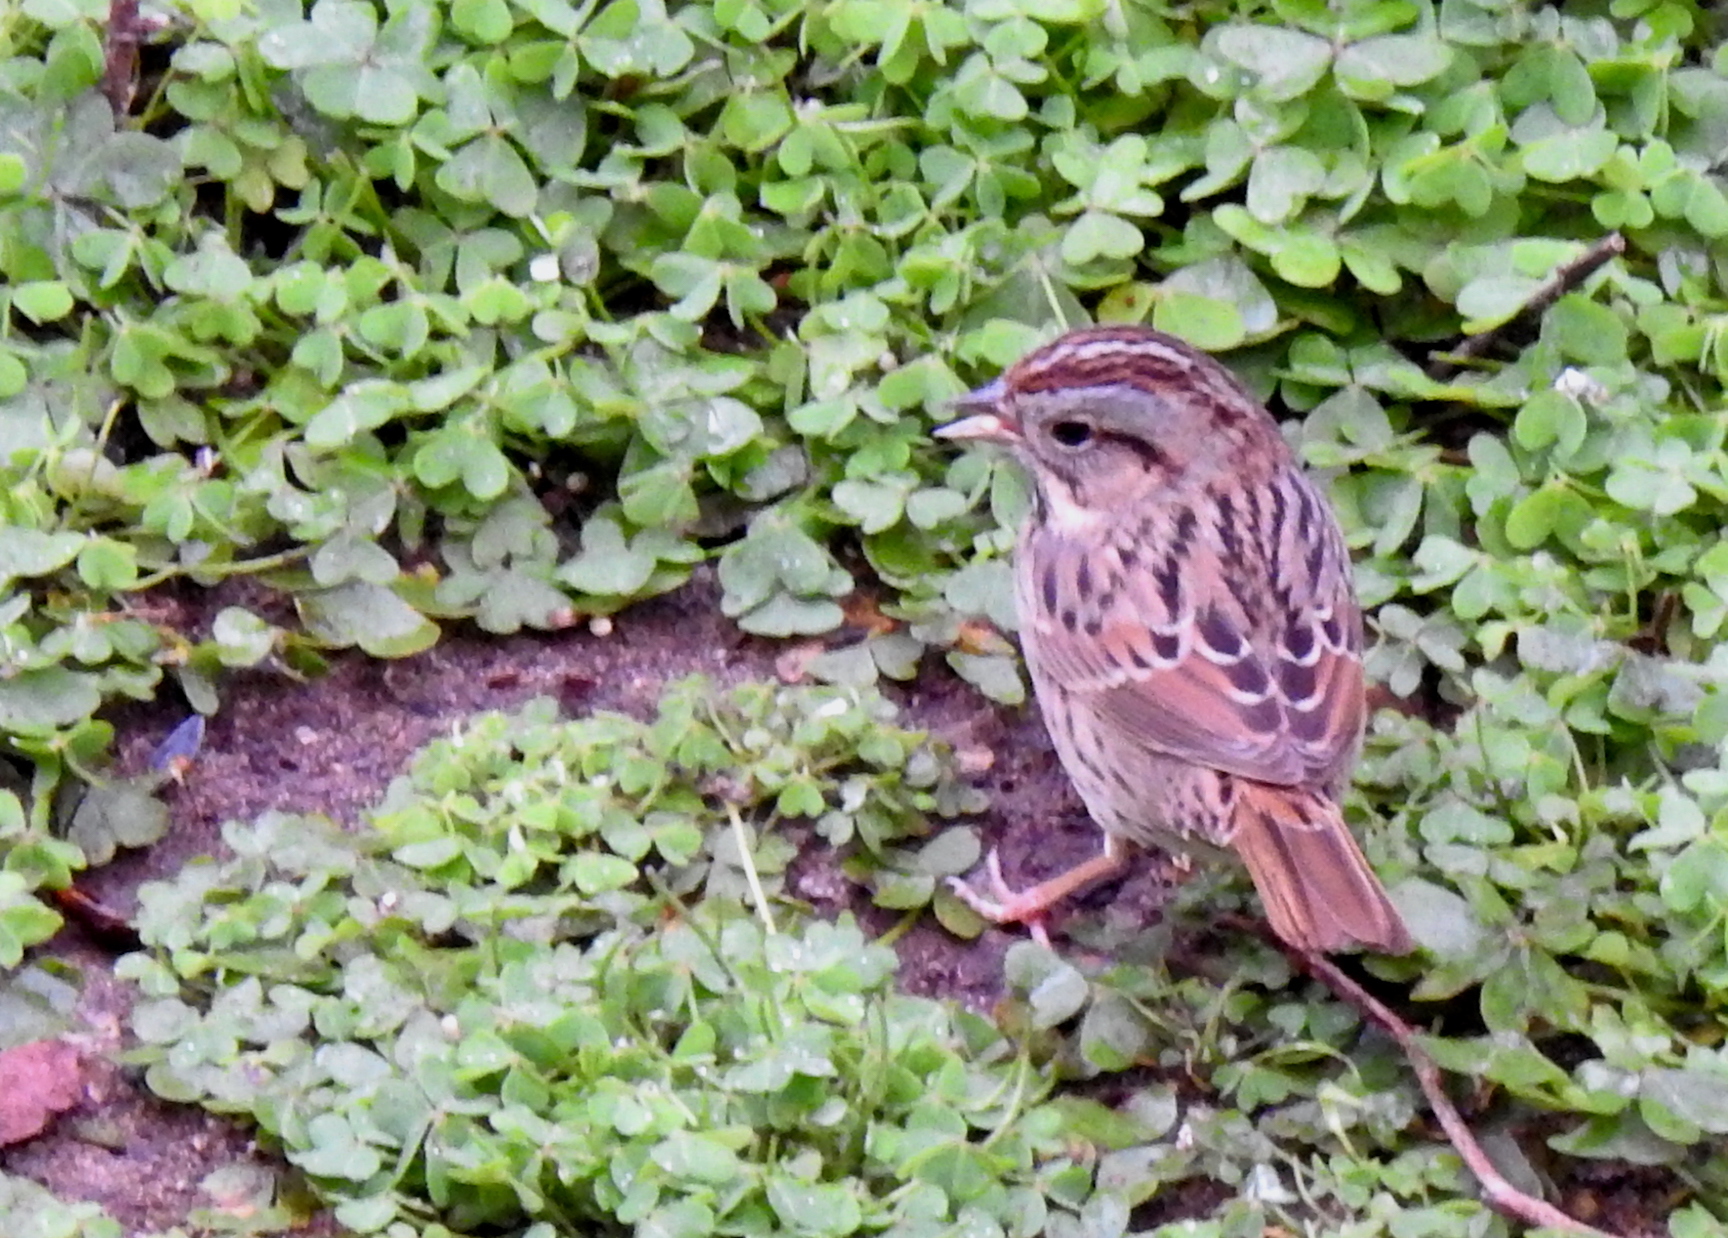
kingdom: Animalia
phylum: Chordata
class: Aves
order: Passeriformes
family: Passerellidae
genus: Melospiza
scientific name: Melospiza lincolnii
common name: Lincoln's sparrow
